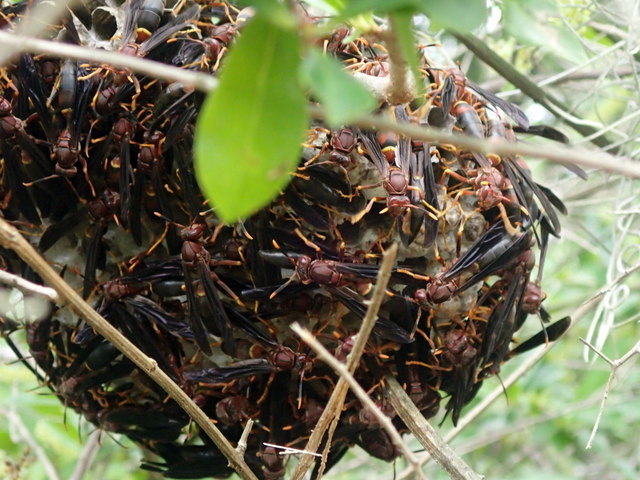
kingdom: Animalia
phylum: Arthropoda
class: Insecta
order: Hymenoptera
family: Eumenidae
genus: Polistes
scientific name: Polistes annularis
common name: Ringed paper wasp
